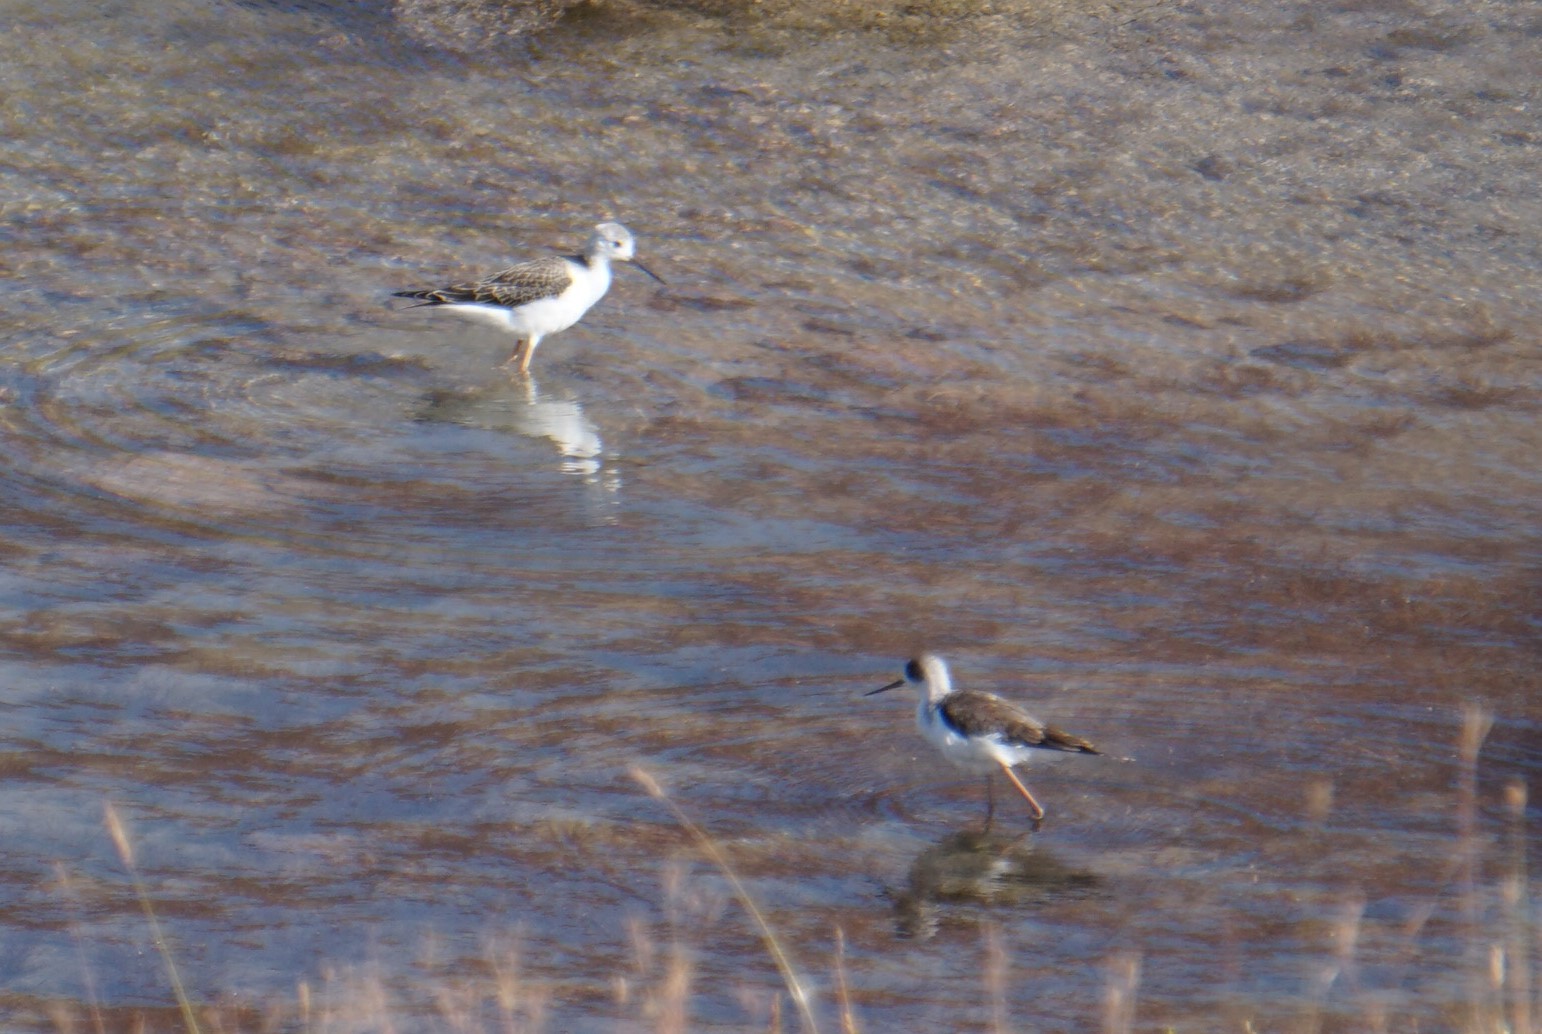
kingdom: Animalia
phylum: Chordata
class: Aves
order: Charadriiformes
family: Recurvirostridae
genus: Himantopus
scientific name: Himantopus himantopus
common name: Black-winged stilt
